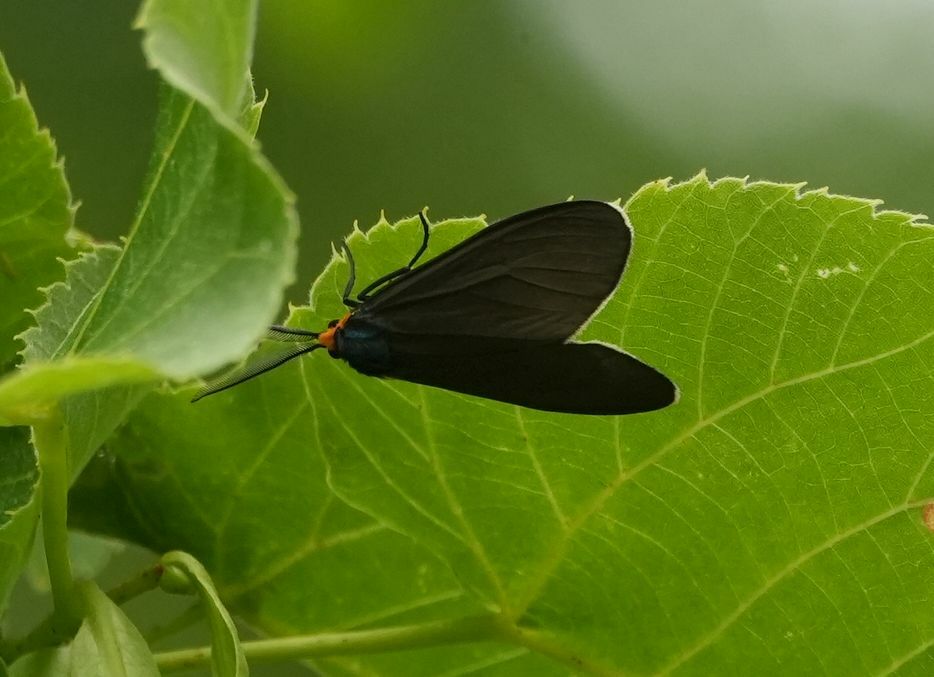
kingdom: Animalia
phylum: Arthropoda
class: Insecta
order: Lepidoptera
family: Erebidae
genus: Ctenucha
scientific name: Ctenucha virginica
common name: Virginia ctenucha moth
